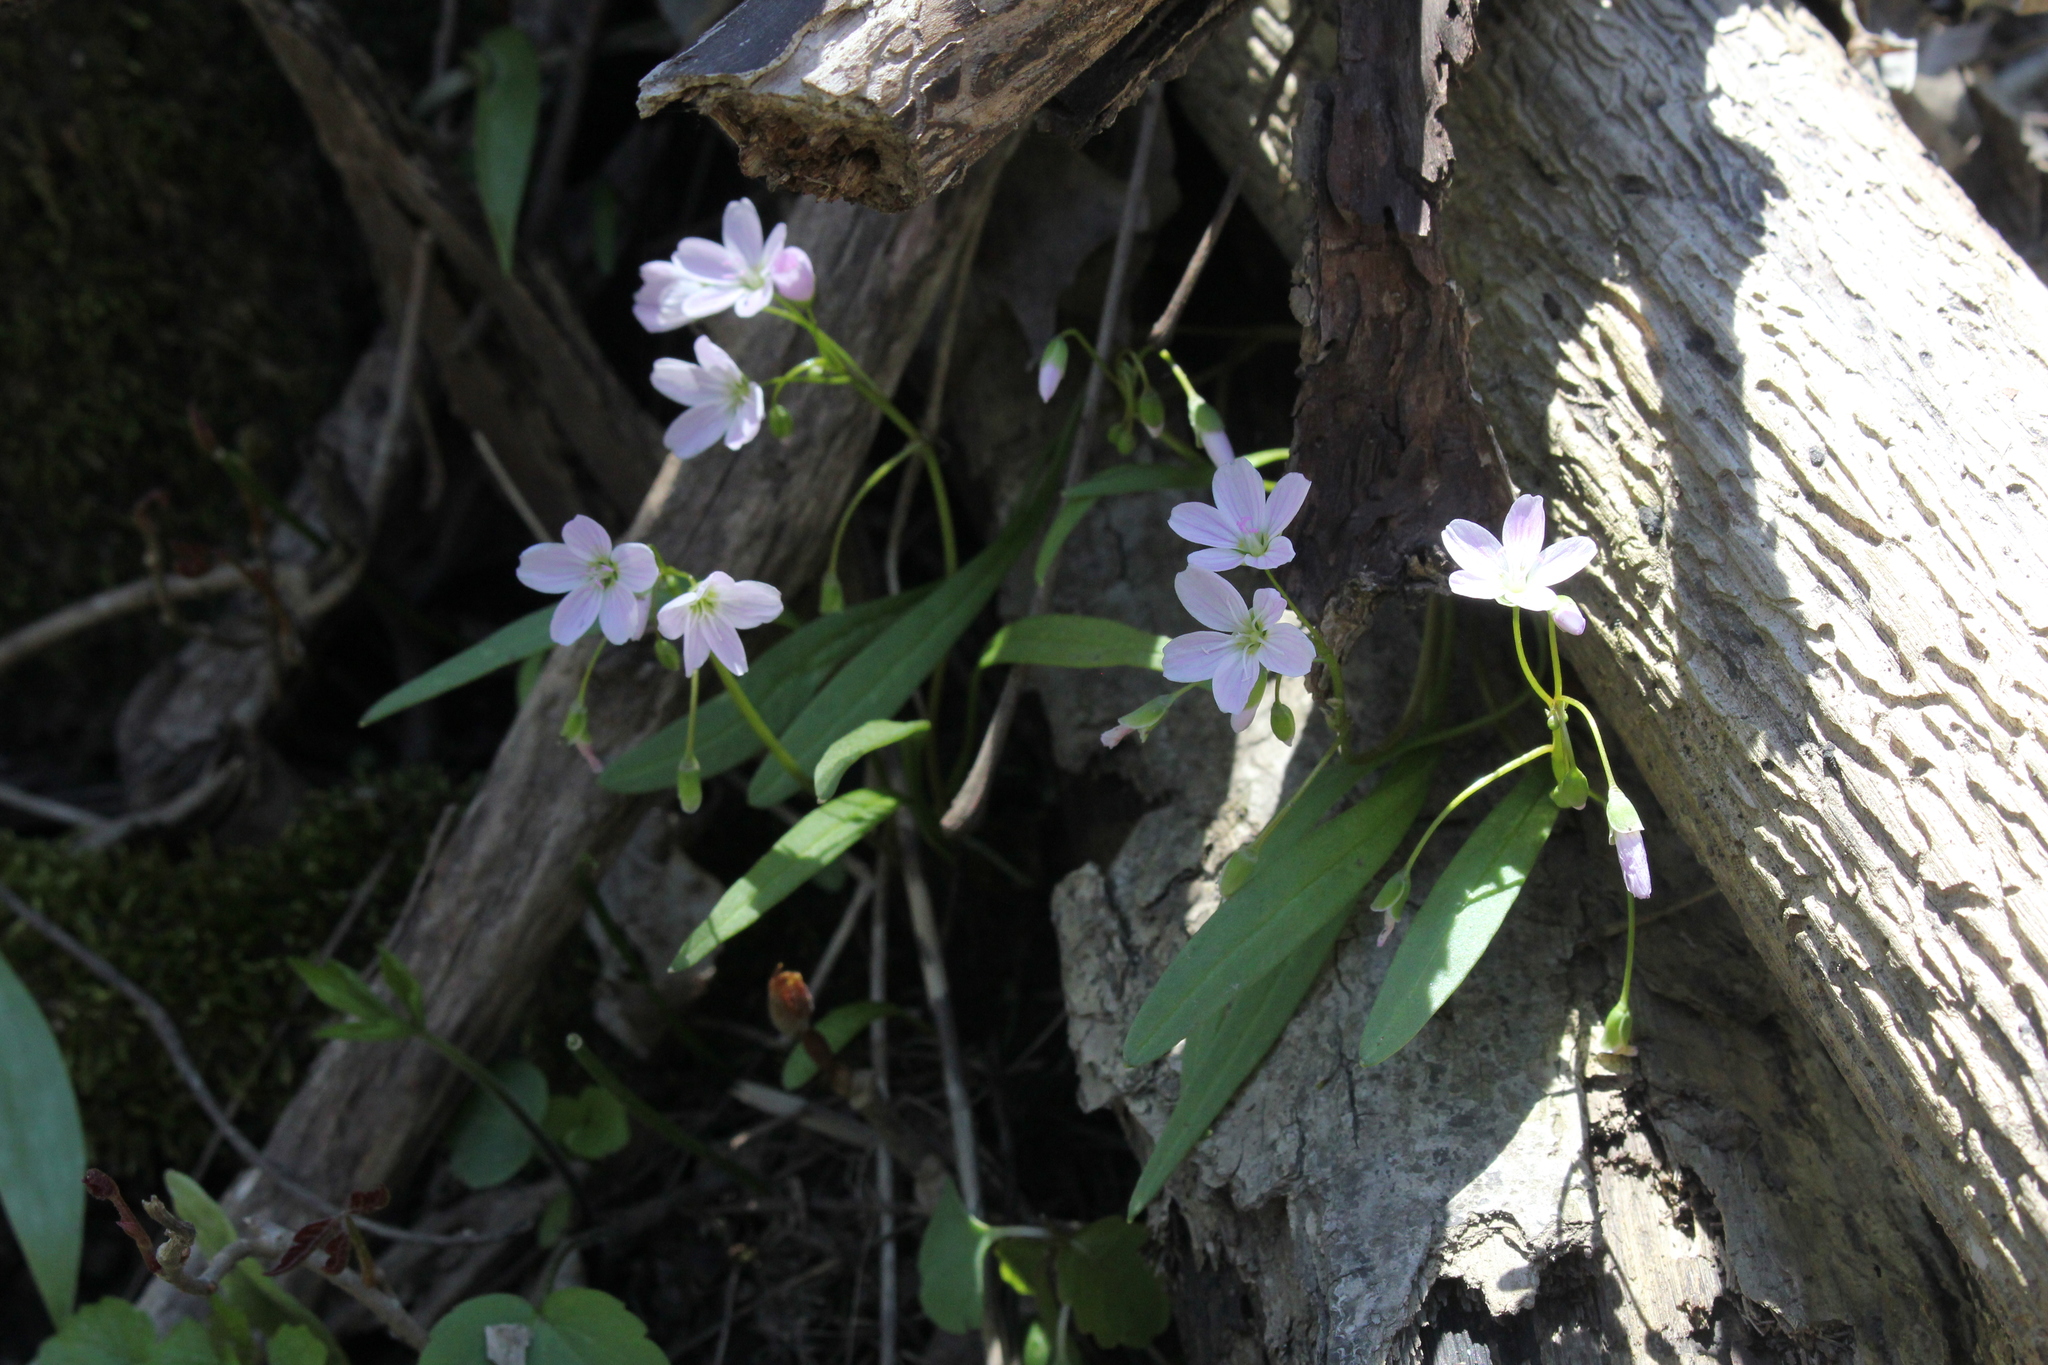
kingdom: Plantae
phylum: Tracheophyta
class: Magnoliopsida
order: Caryophyllales
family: Montiaceae
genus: Claytonia
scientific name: Claytonia virginica
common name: Virginia springbeauty
